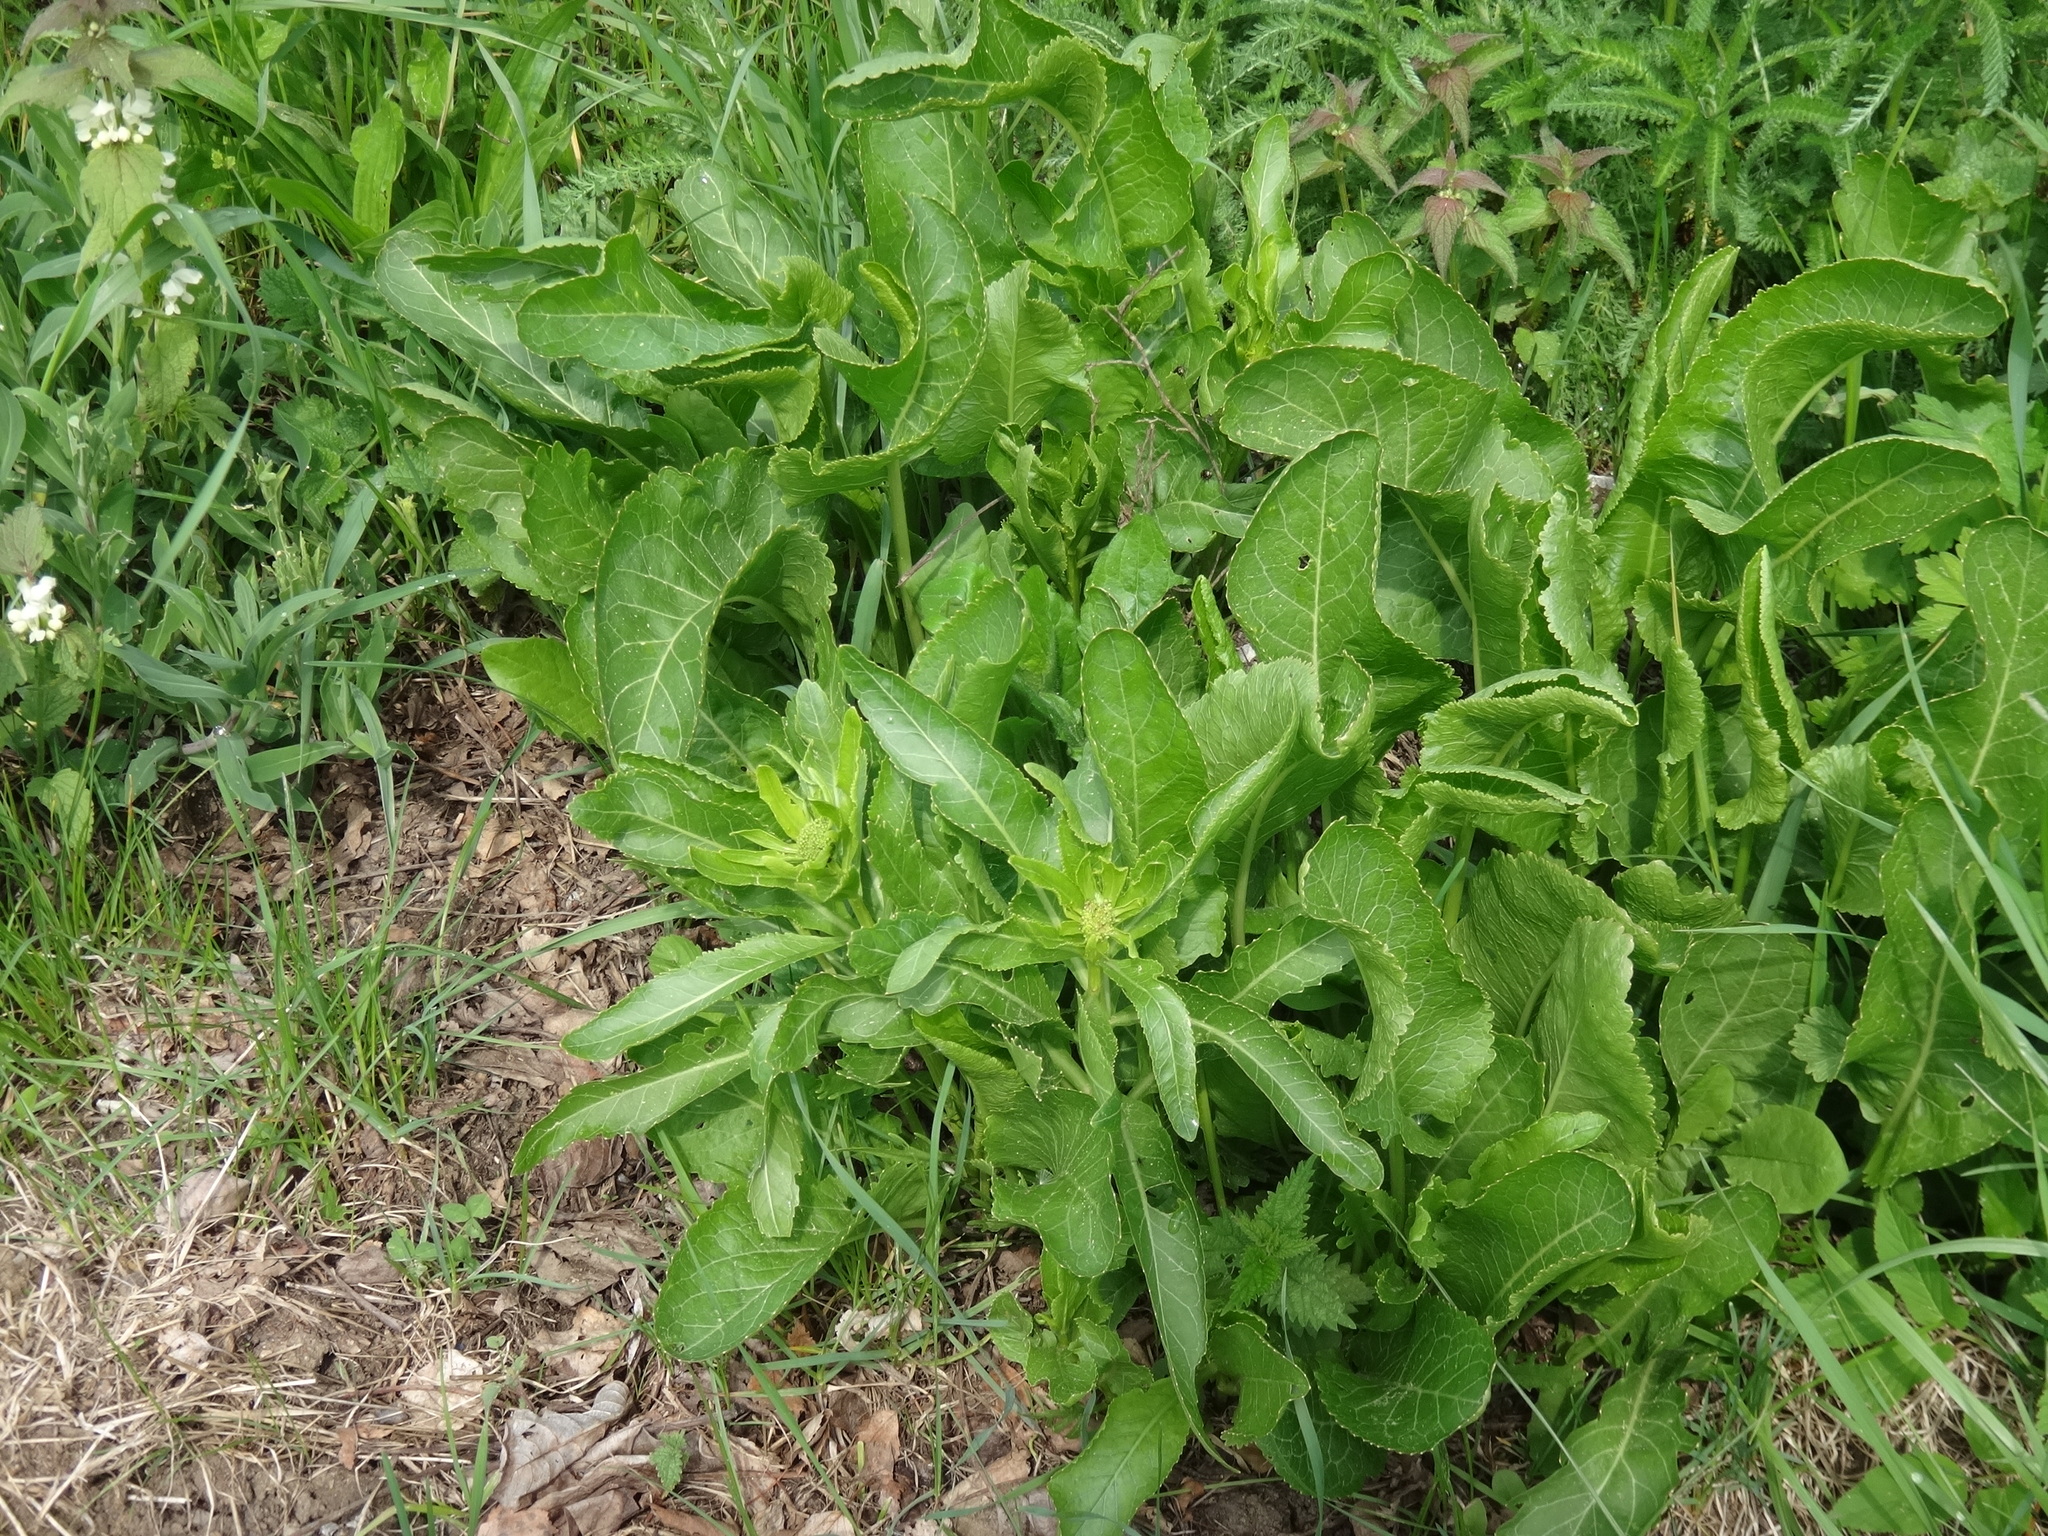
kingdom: Plantae
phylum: Tracheophyta
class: Magnoliopsida
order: Brassicales
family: Brassicaceae
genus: Armoracia
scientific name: Armoracia rusticana
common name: Horseradish
